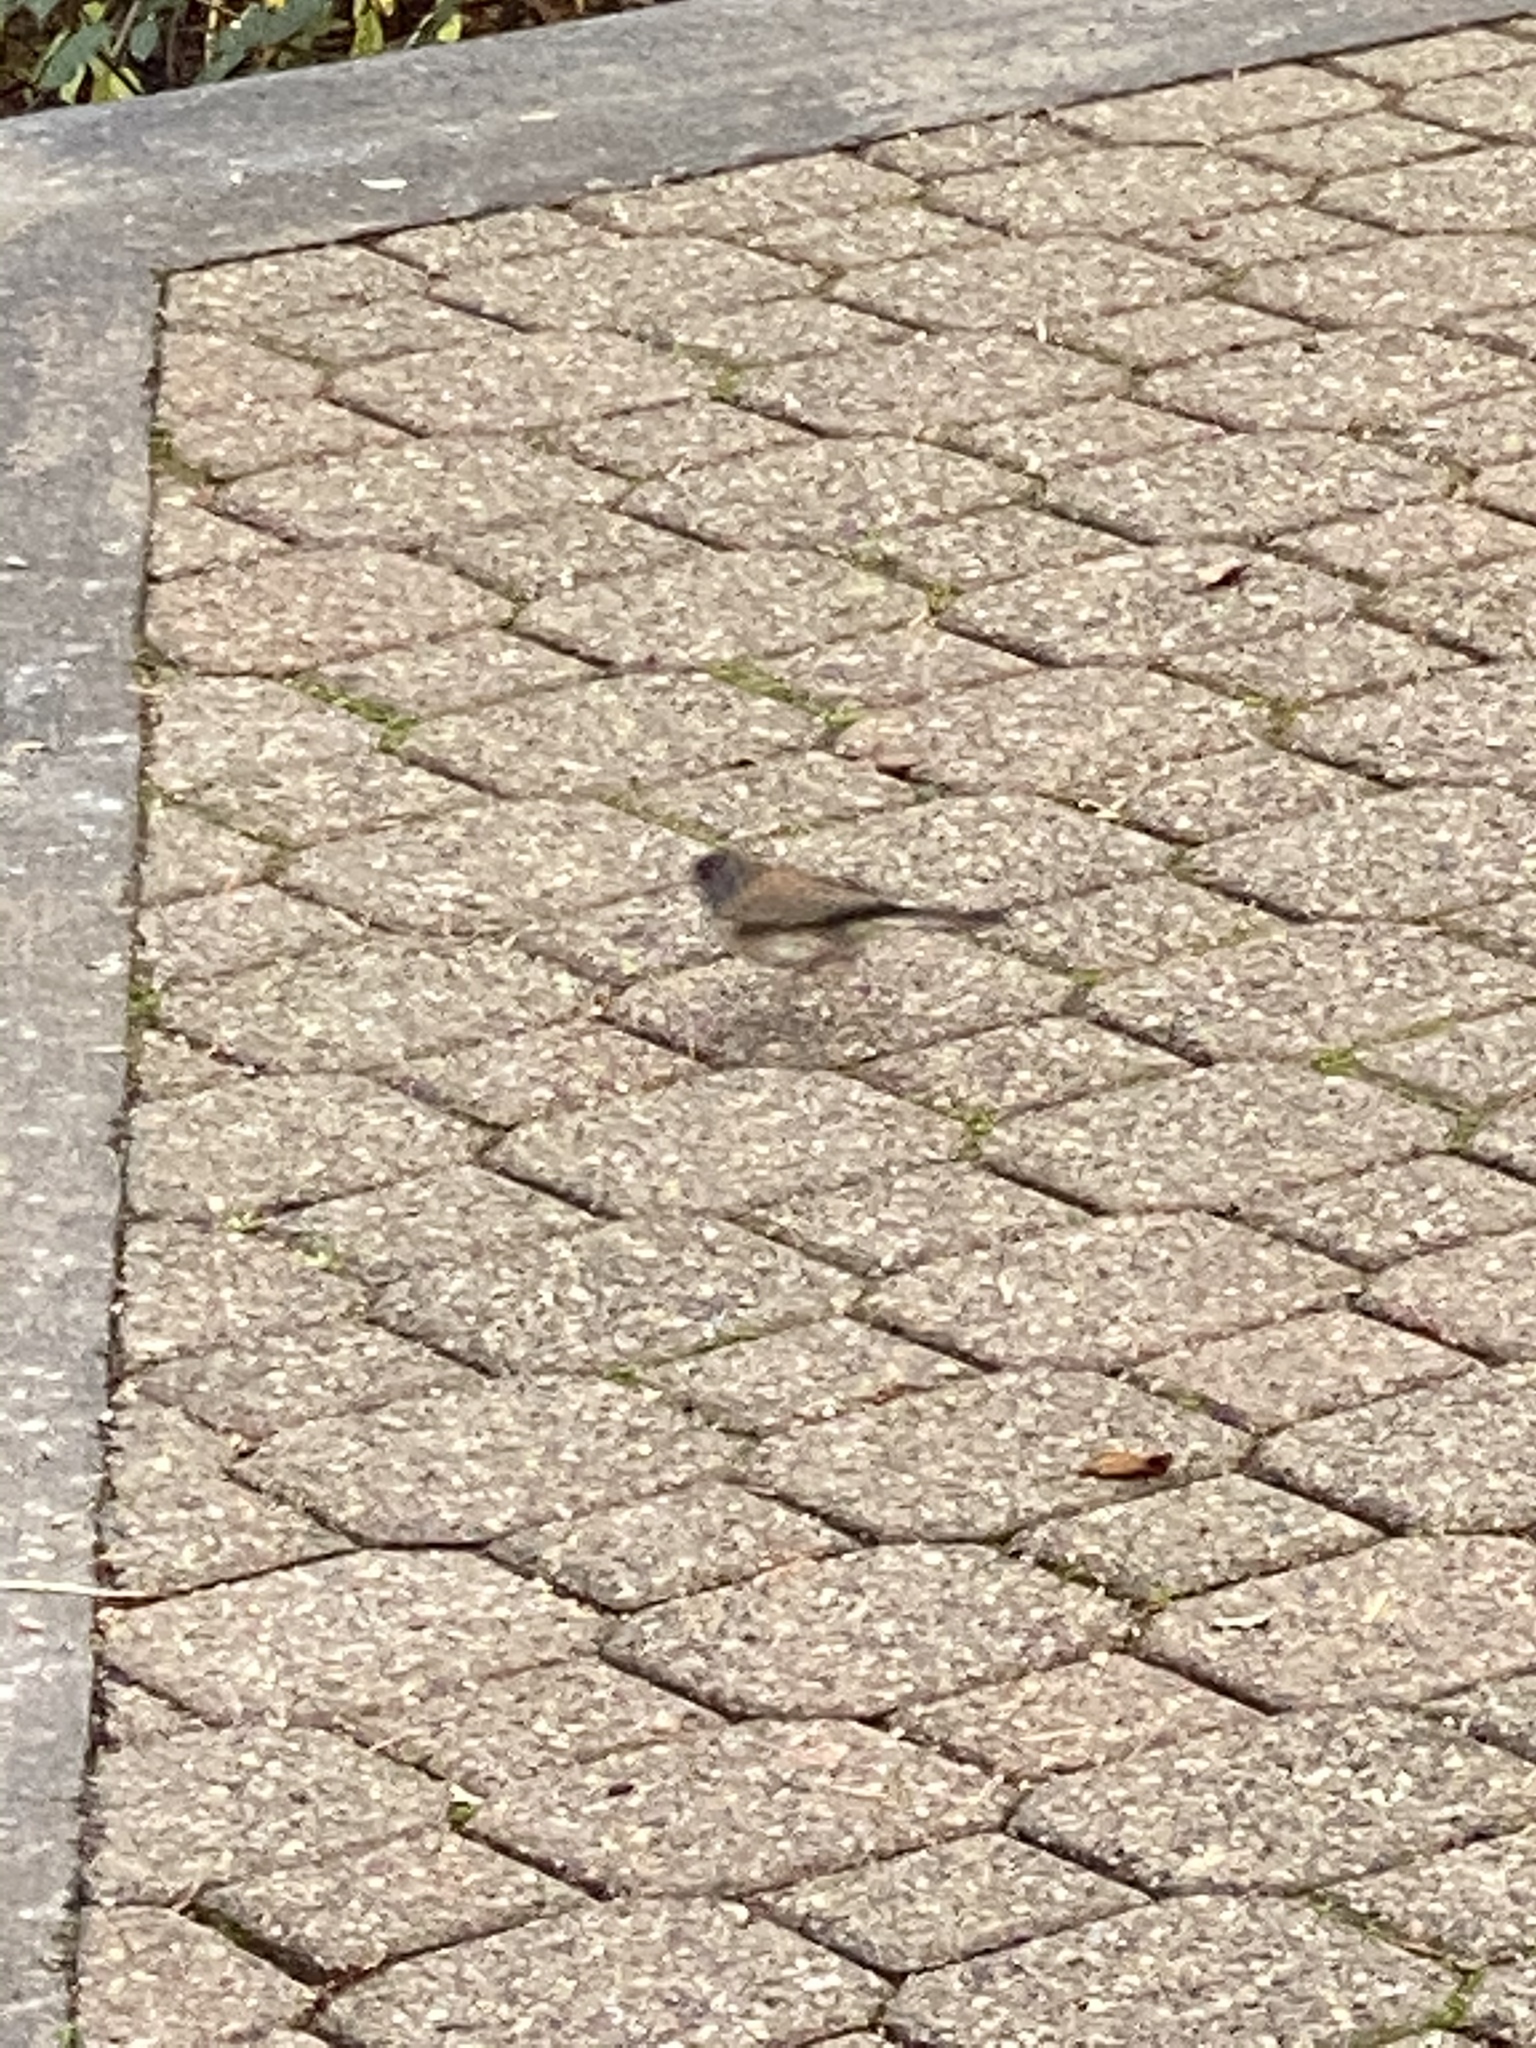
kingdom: Animalia
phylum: Chordata
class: Aves
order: Passeriformes
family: Passerellidae
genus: Junco
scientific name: Junco hyemalis
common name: Dark-eyed junco
